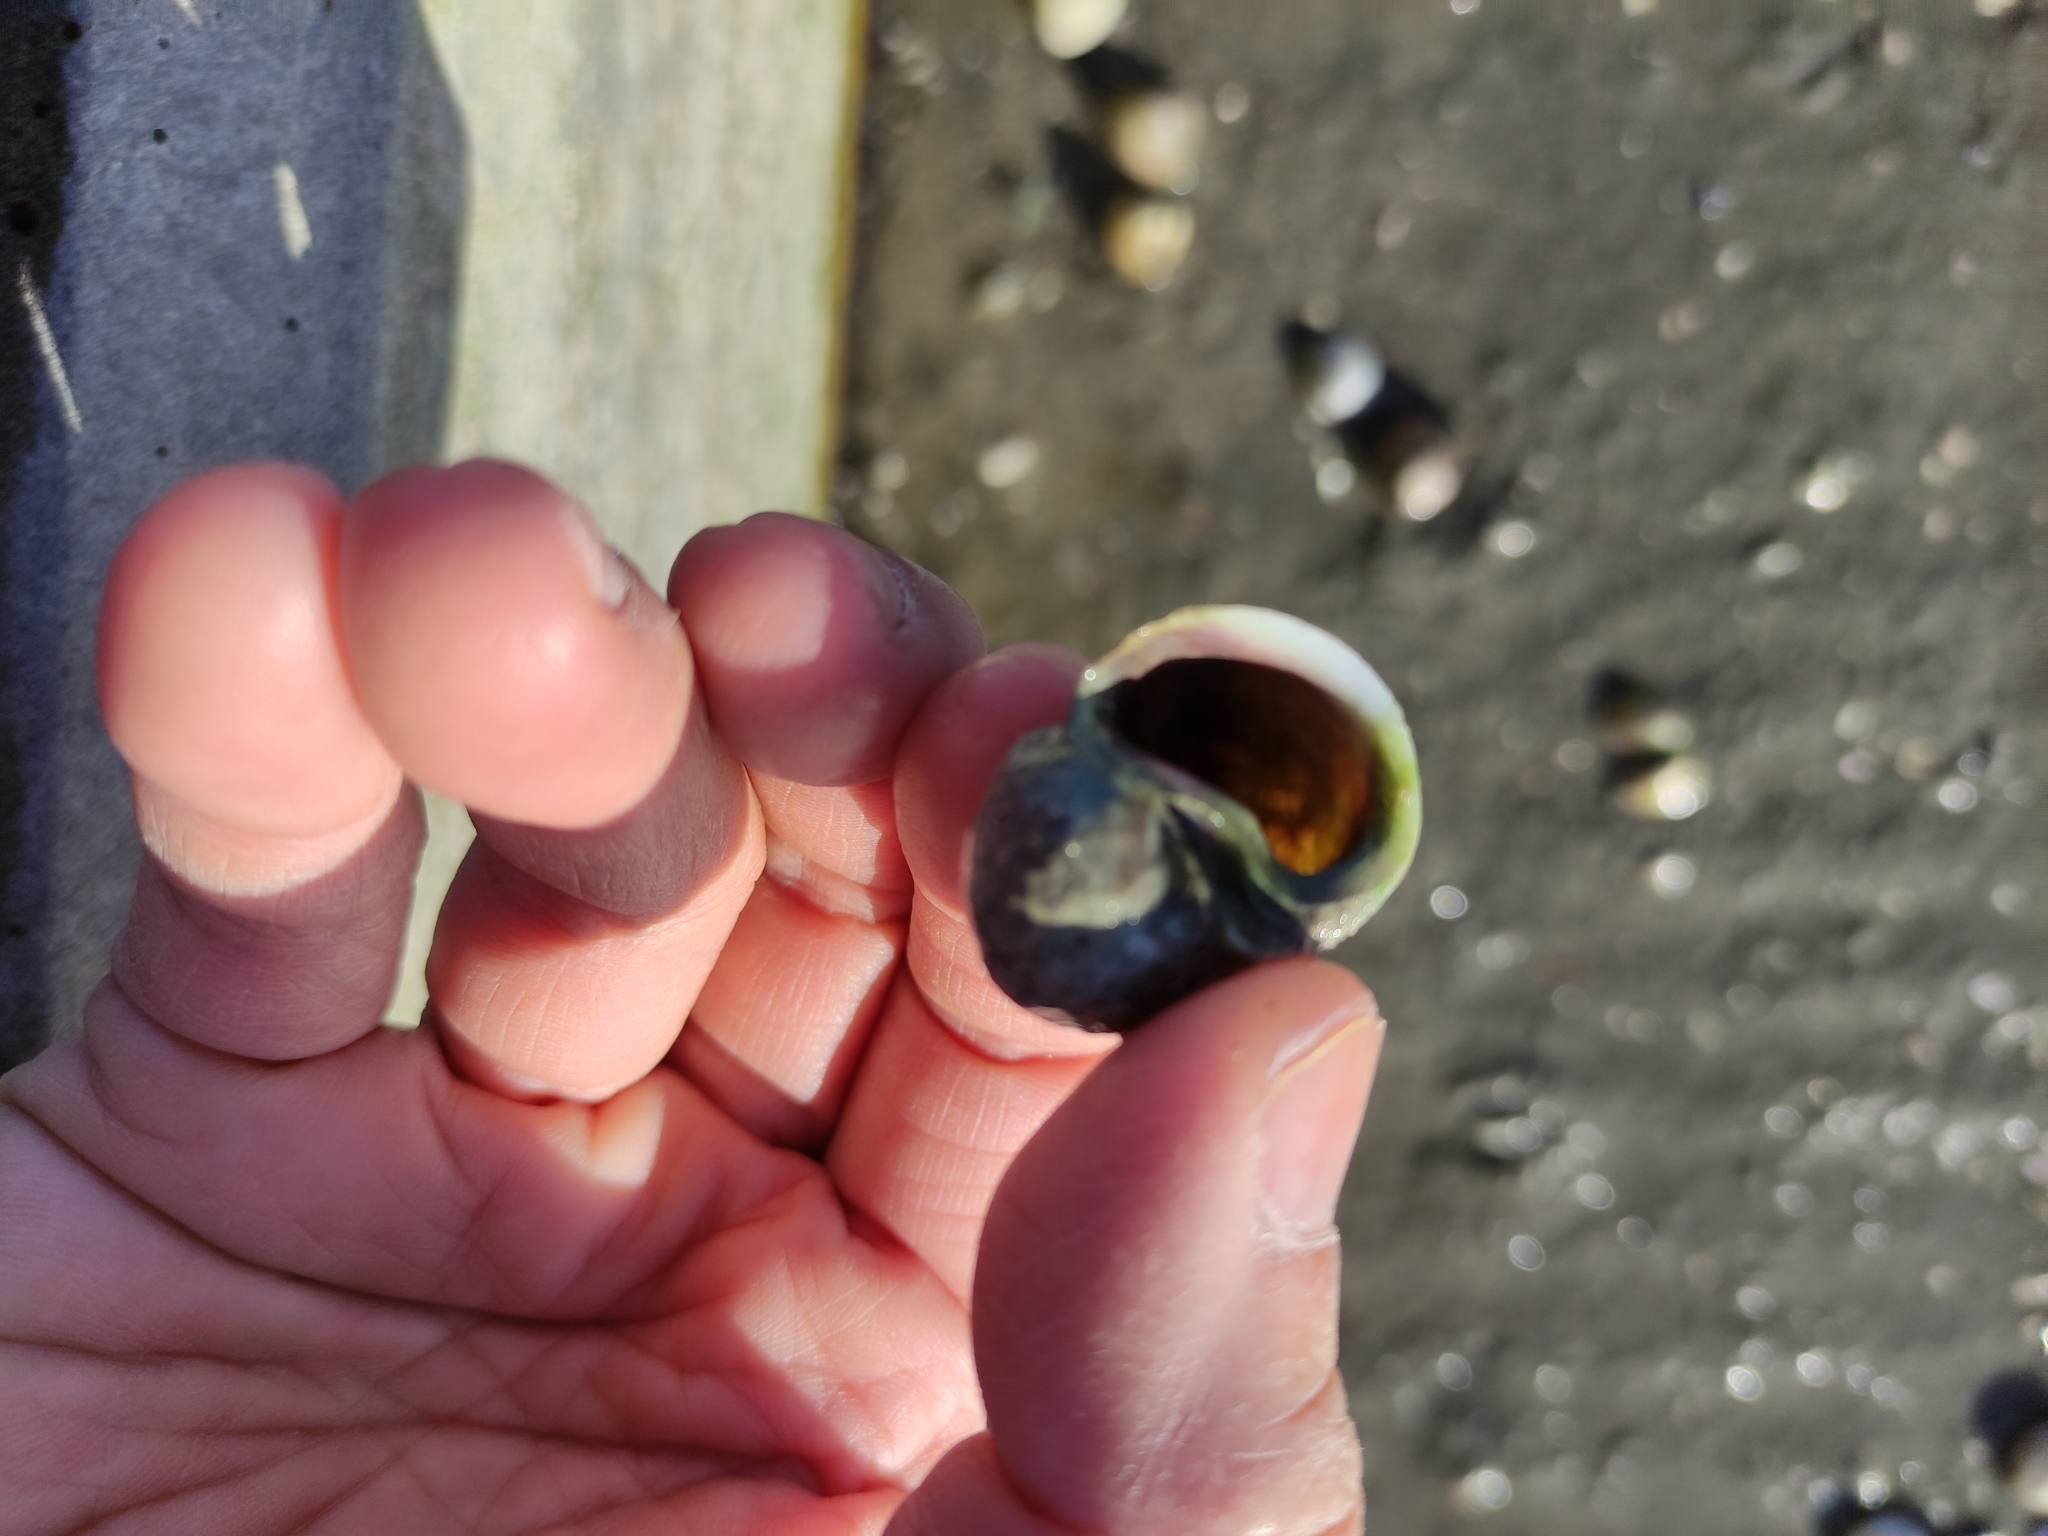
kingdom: Animalia
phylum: Mollusca
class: Gastropoda
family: Amphibolidae
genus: Amphibola
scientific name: Amphibola crenata
